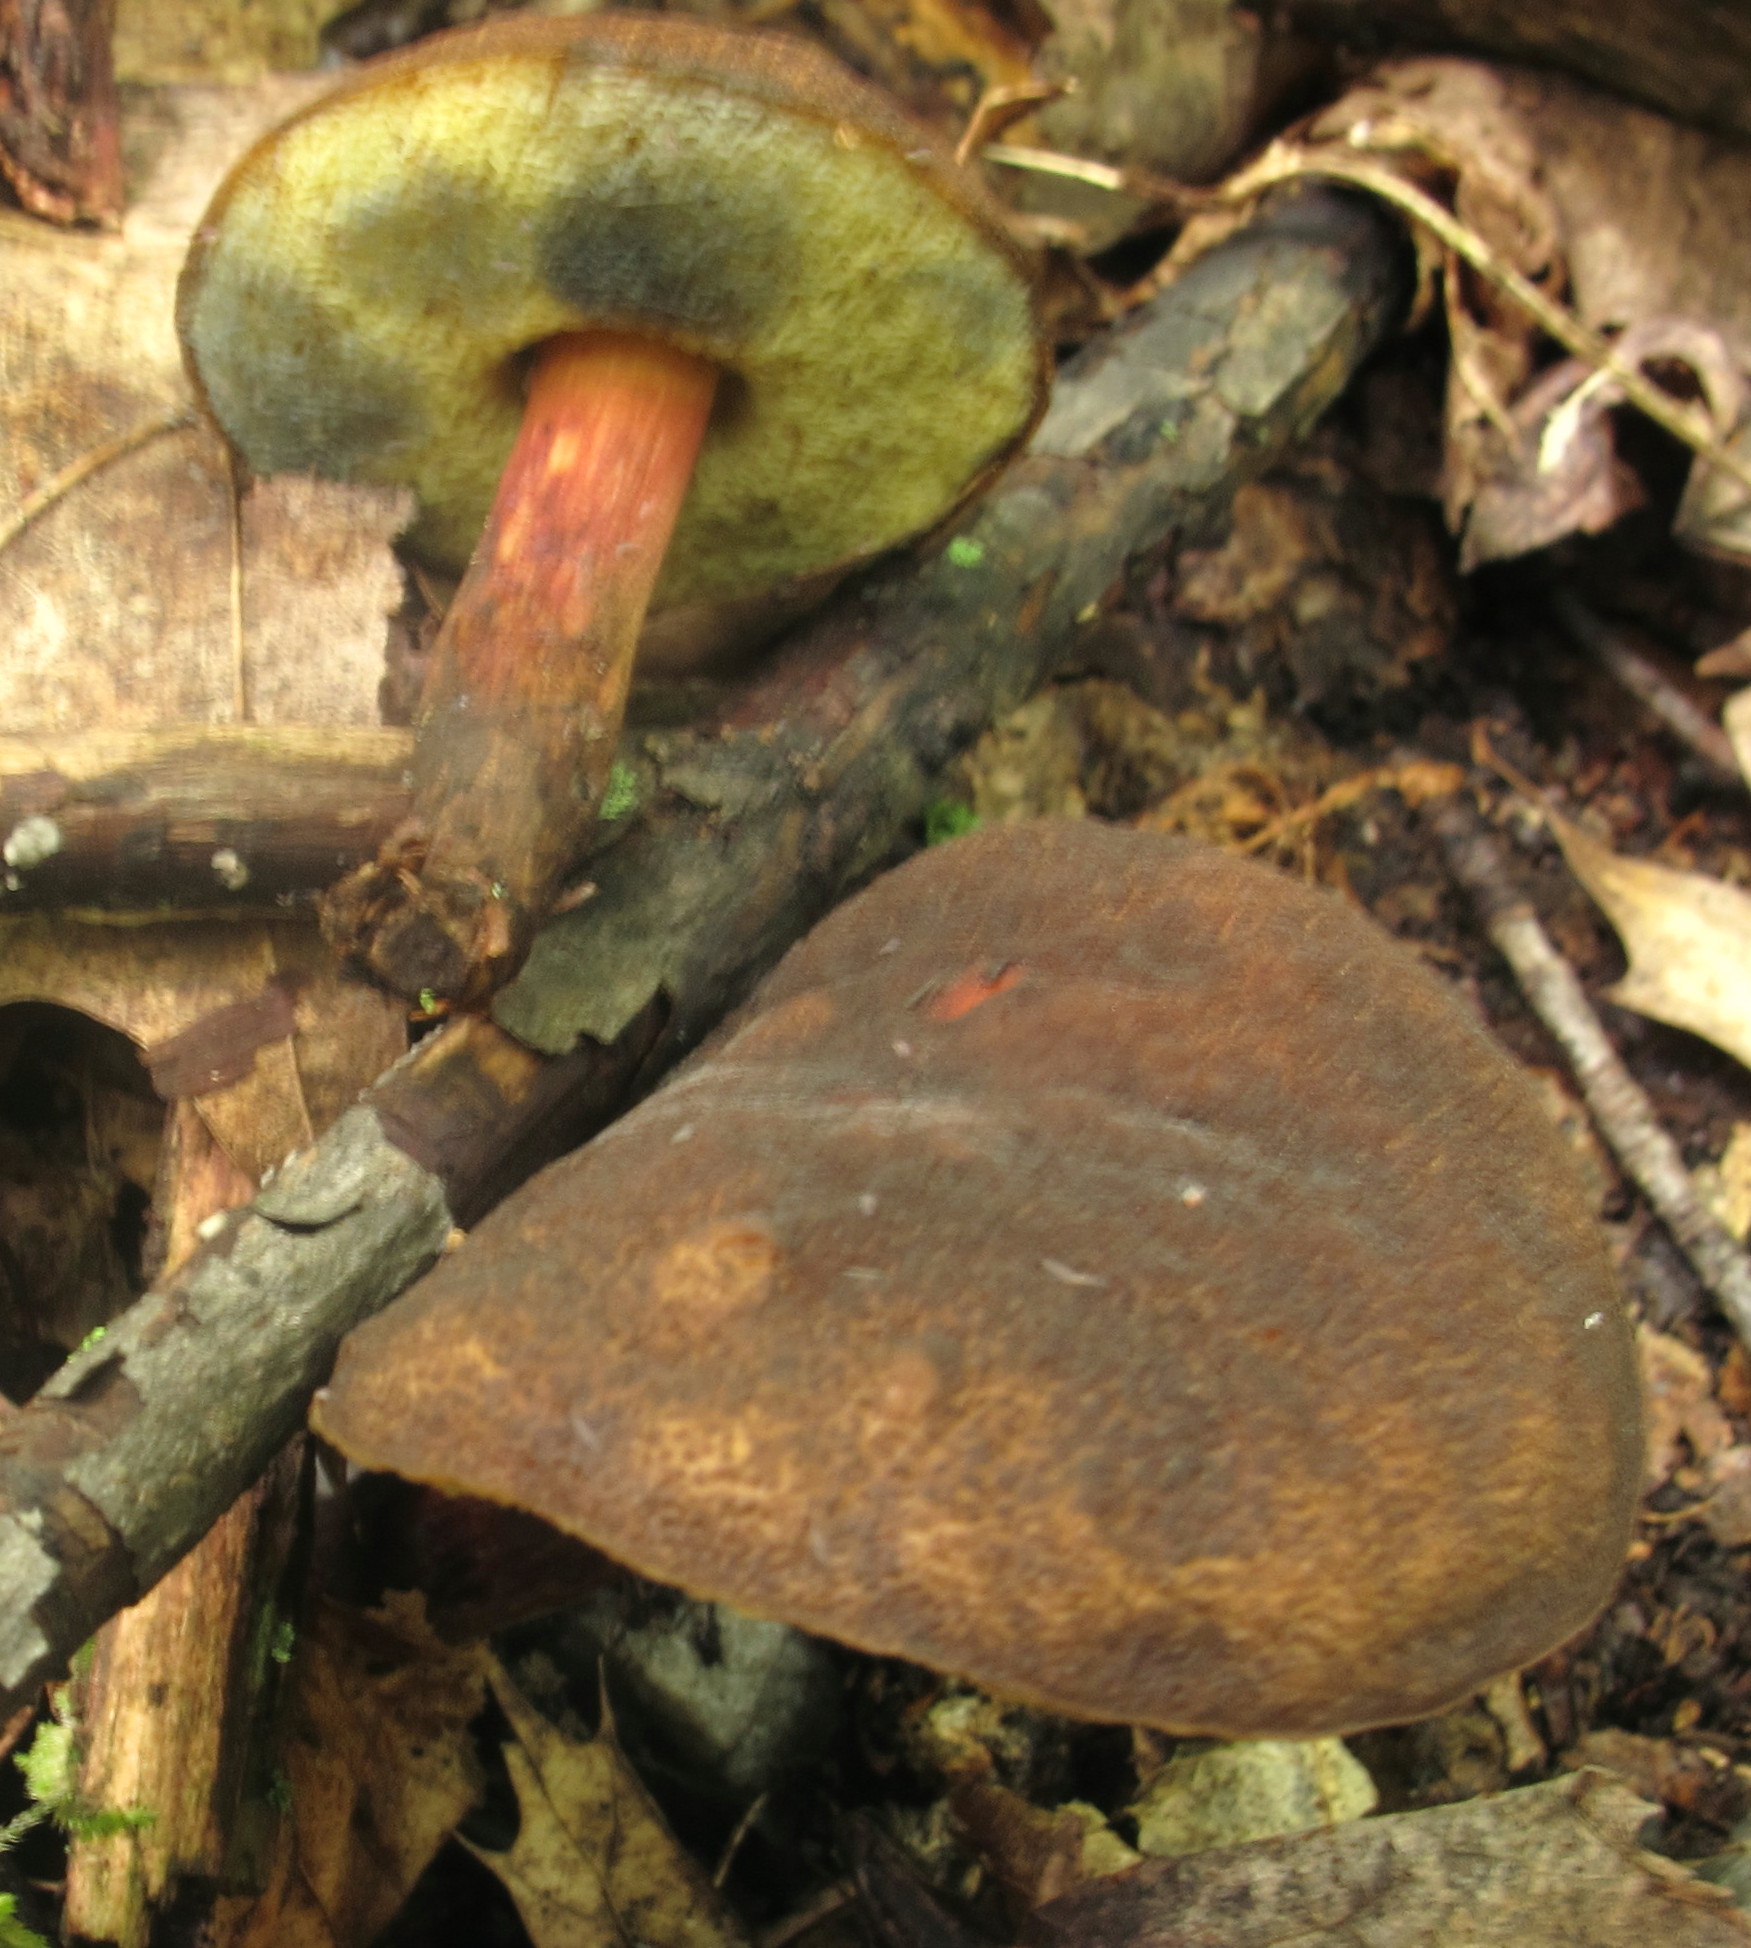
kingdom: Fungi
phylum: Basidiomycota
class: Agaricomycetes
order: Boletales
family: Boletaceae
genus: Boletellus
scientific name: Boletellus chrysenteroides
